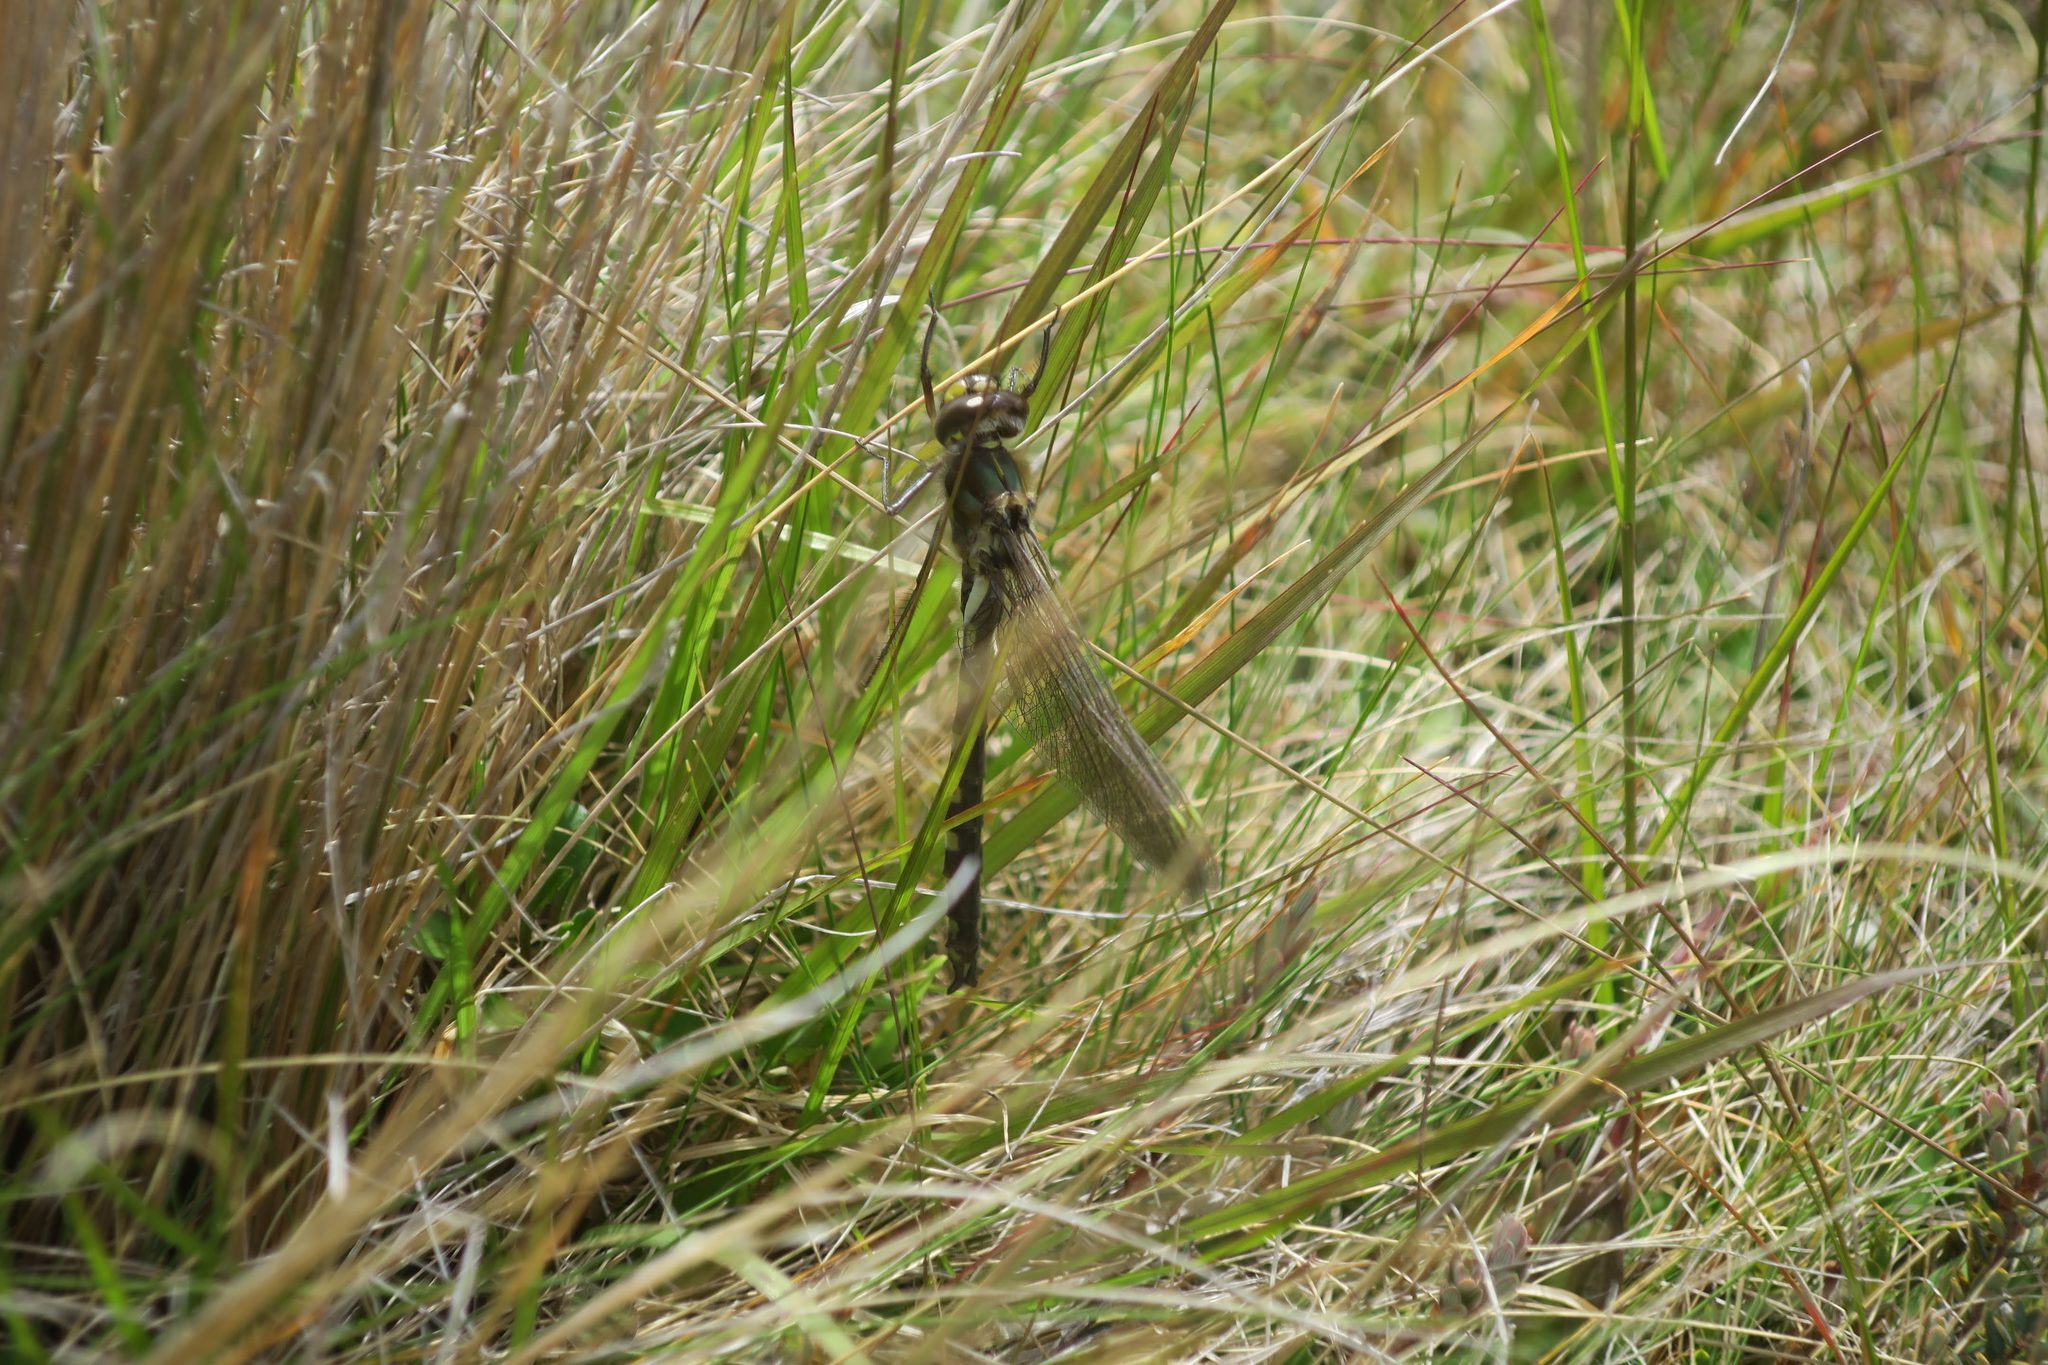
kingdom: Animalia
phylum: Arthropoda
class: Insecta
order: Odonata
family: Corduliidae
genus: Procordulia
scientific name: Procordulia grayi
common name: Yellow spotted dragonfly
